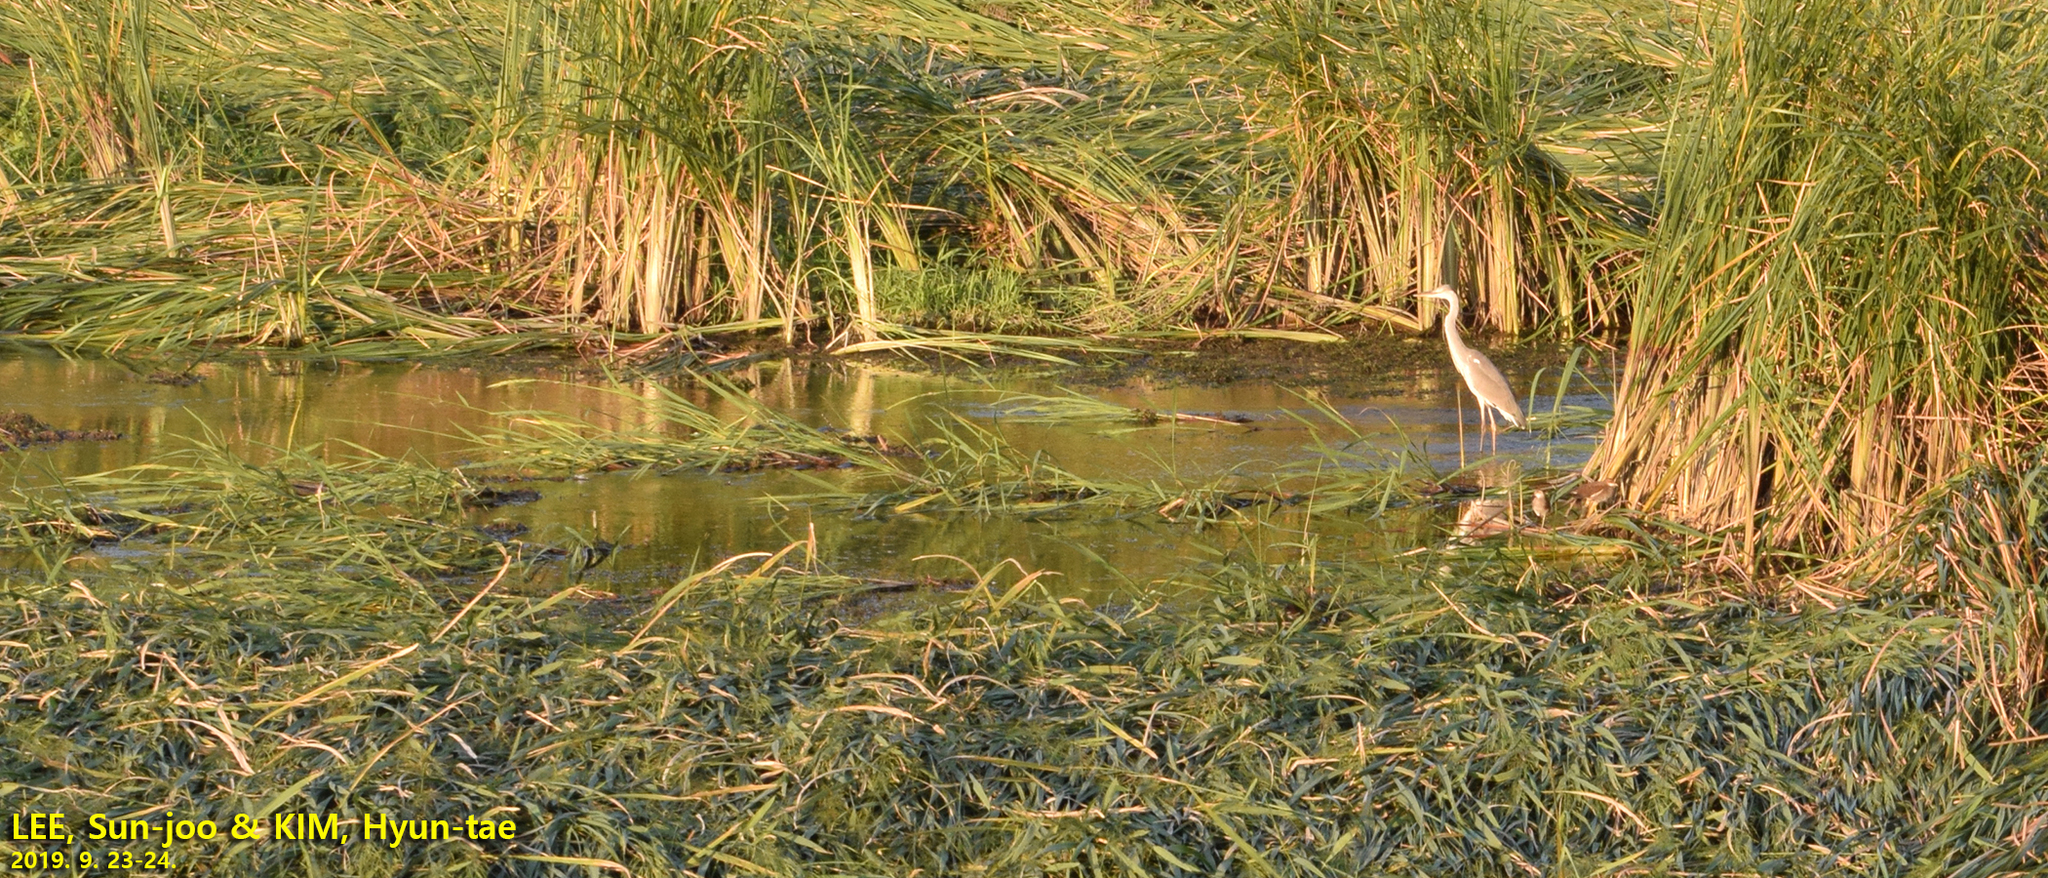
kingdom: Animalia
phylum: Chordata
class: Aves
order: Pelecaniformes
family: Ardeidae
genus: Ardea
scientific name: Ardea cinerea
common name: Grey heron
